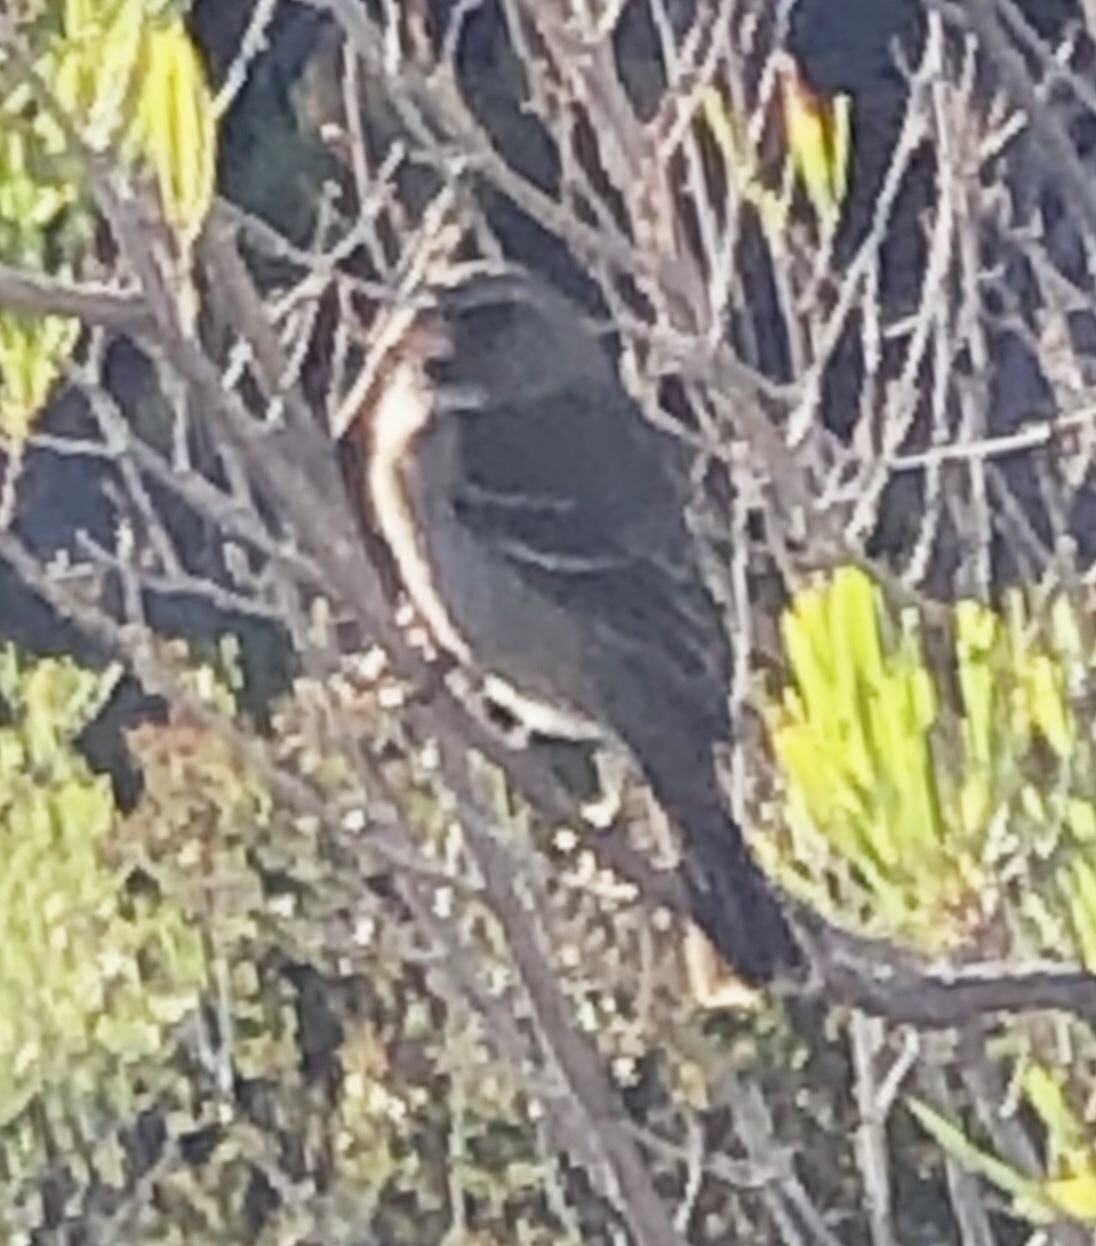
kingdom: Animalia
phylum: Chordata
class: Aves
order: Passeriformes
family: Fringillidae
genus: Crithagra
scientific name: Crithagra leucoptera
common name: Protea canary
